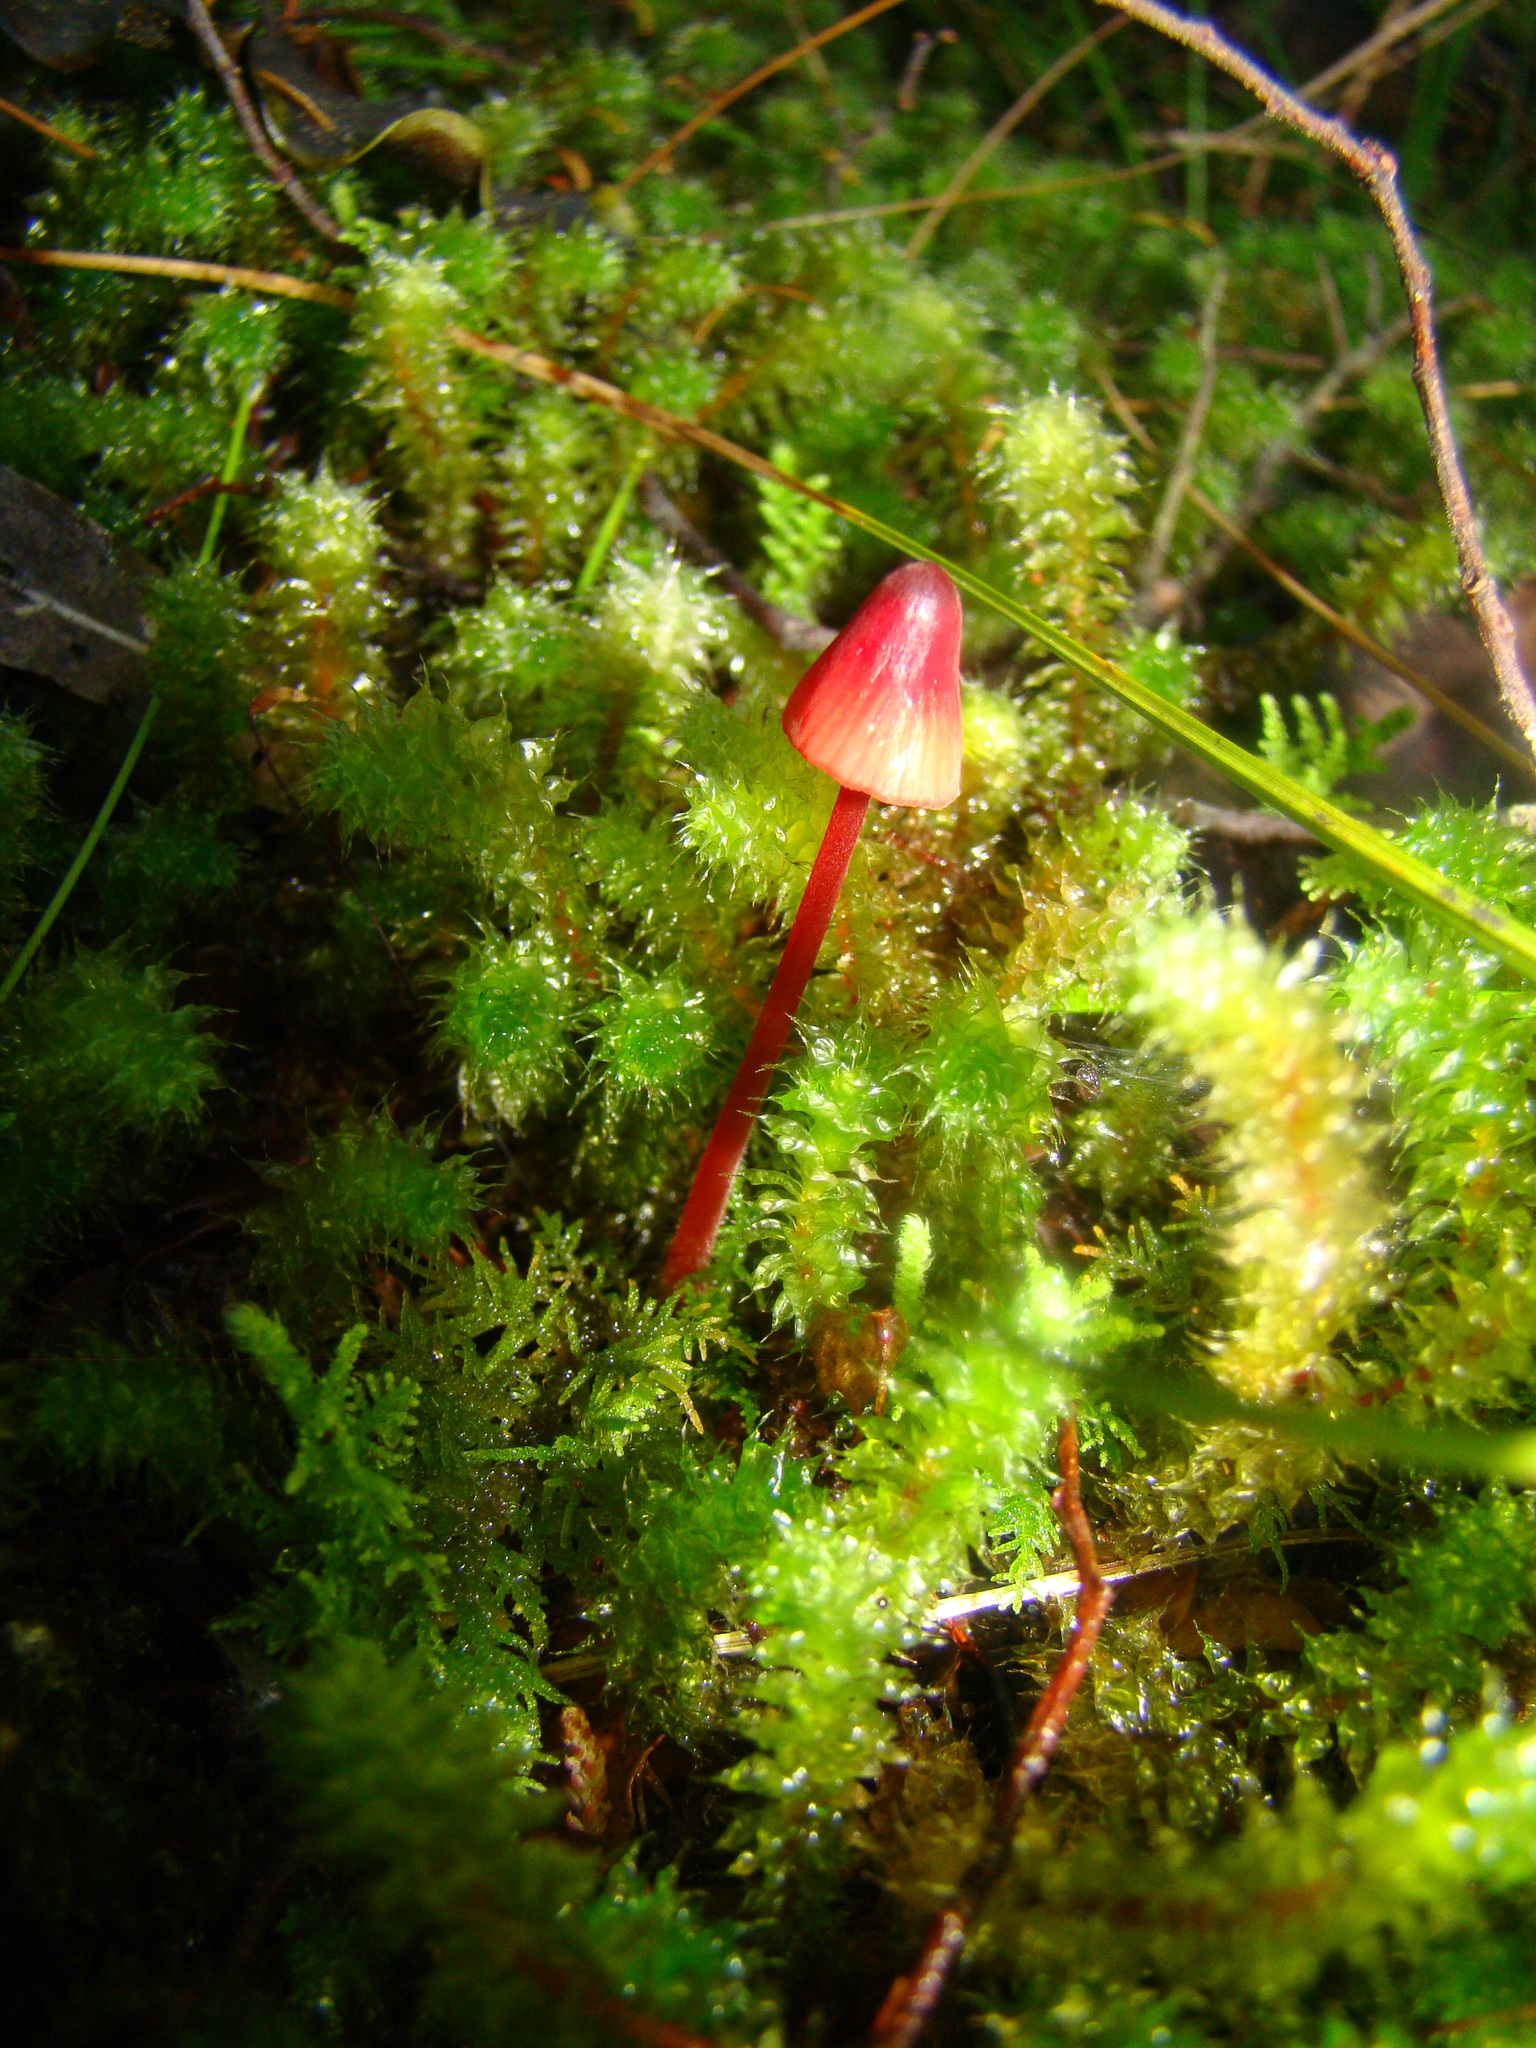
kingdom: Fungi
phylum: Basidiomycota
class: Agaricomycetes
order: Agaricales
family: Mycenaceae
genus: Mycena
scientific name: Mycena ura
